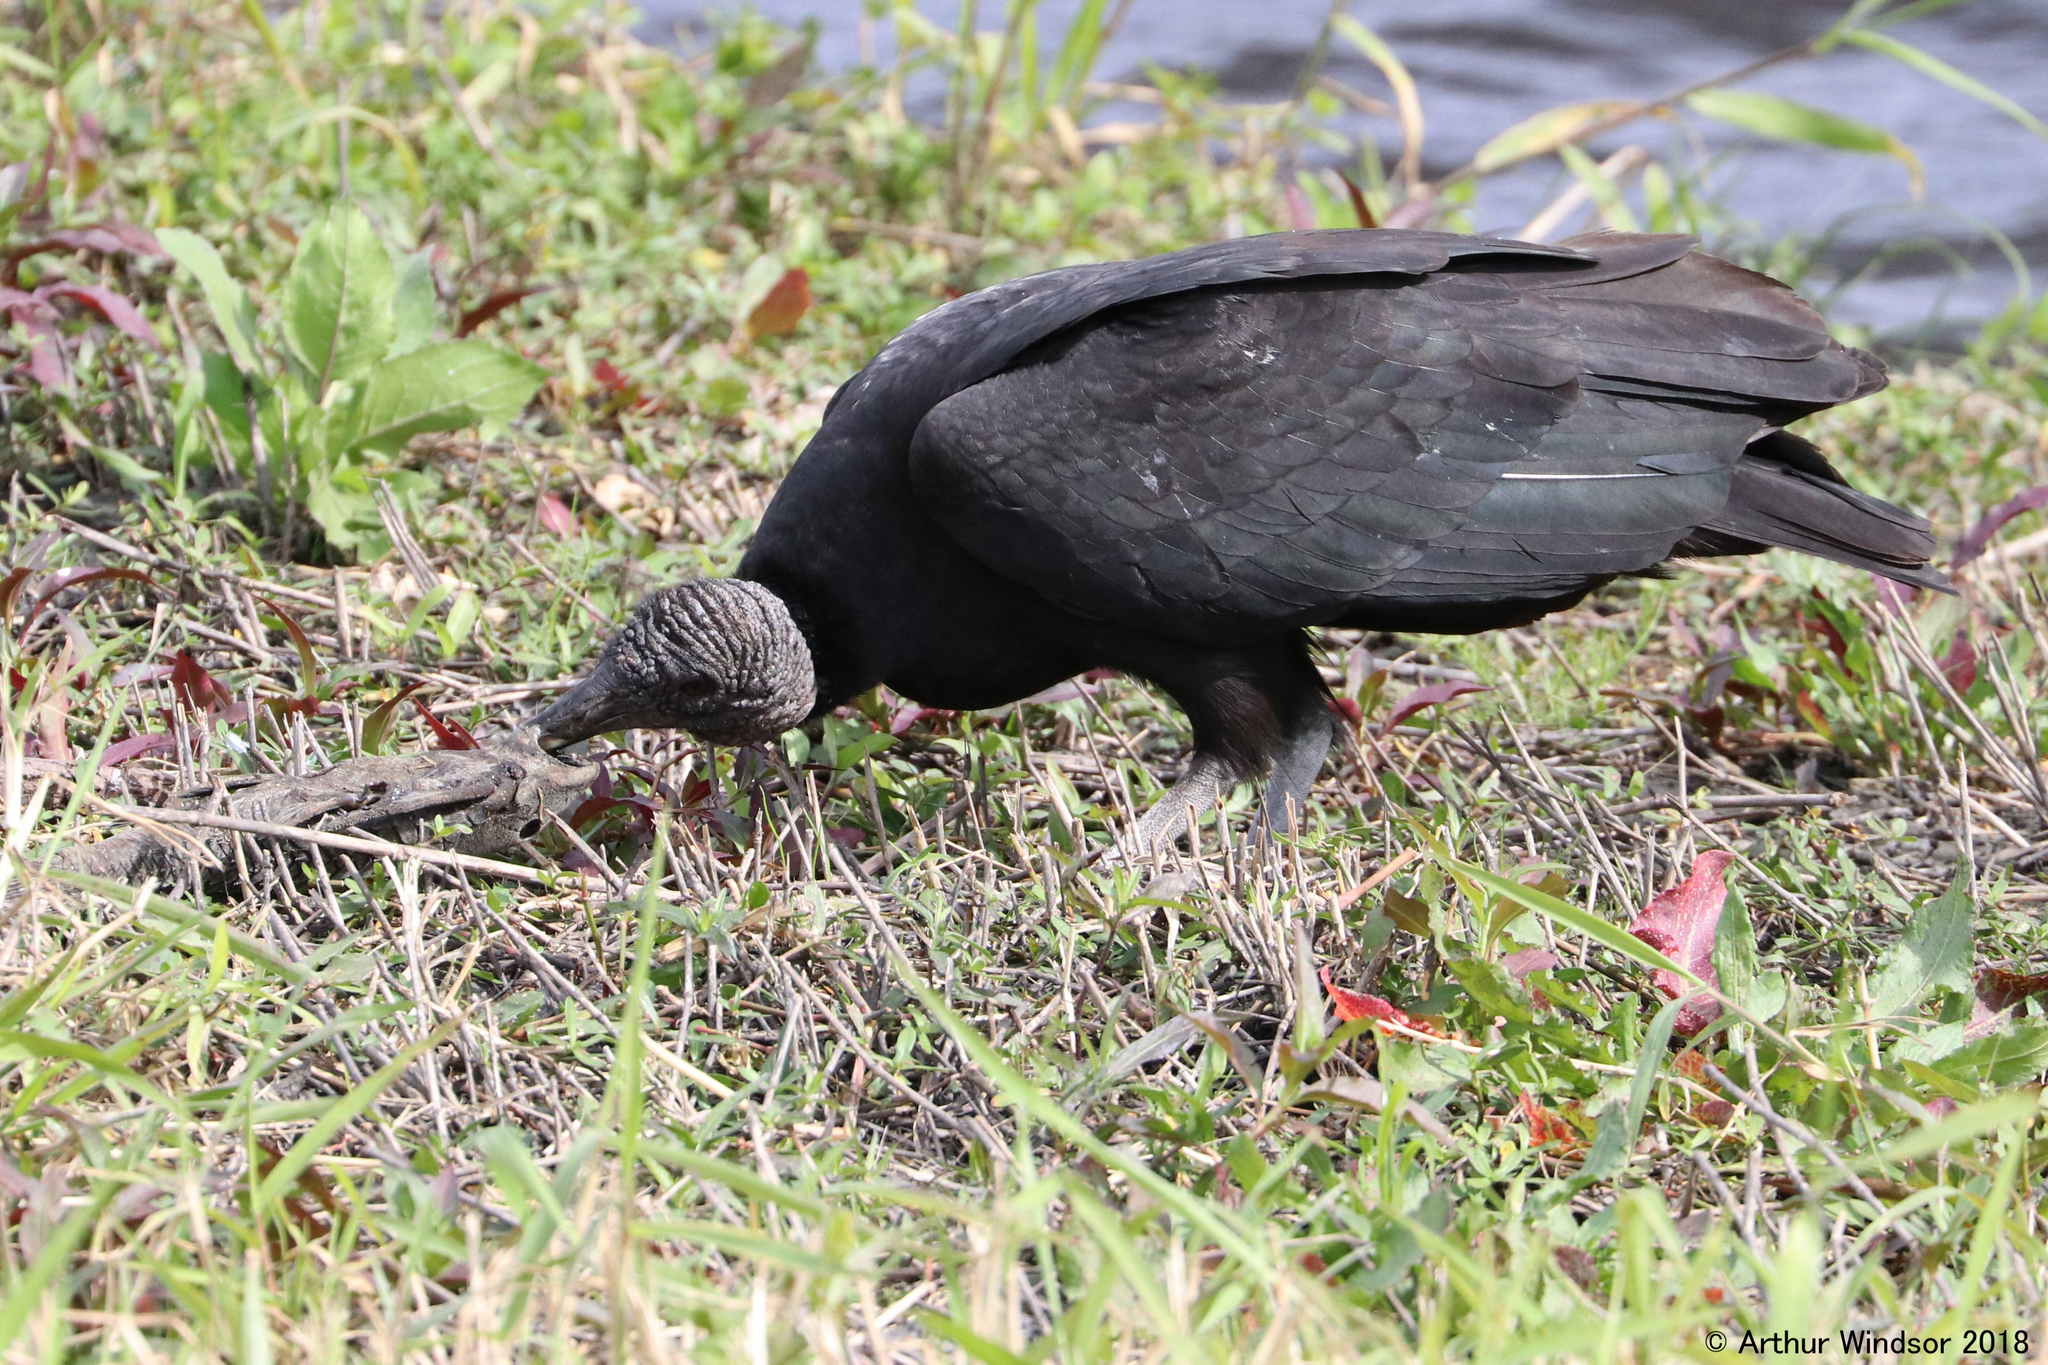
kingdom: Animalia
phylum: Chordata
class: Aves
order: Accipitriformes
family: Cathartidae
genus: Coragyps
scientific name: Coragyps atratus
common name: Black vulture
